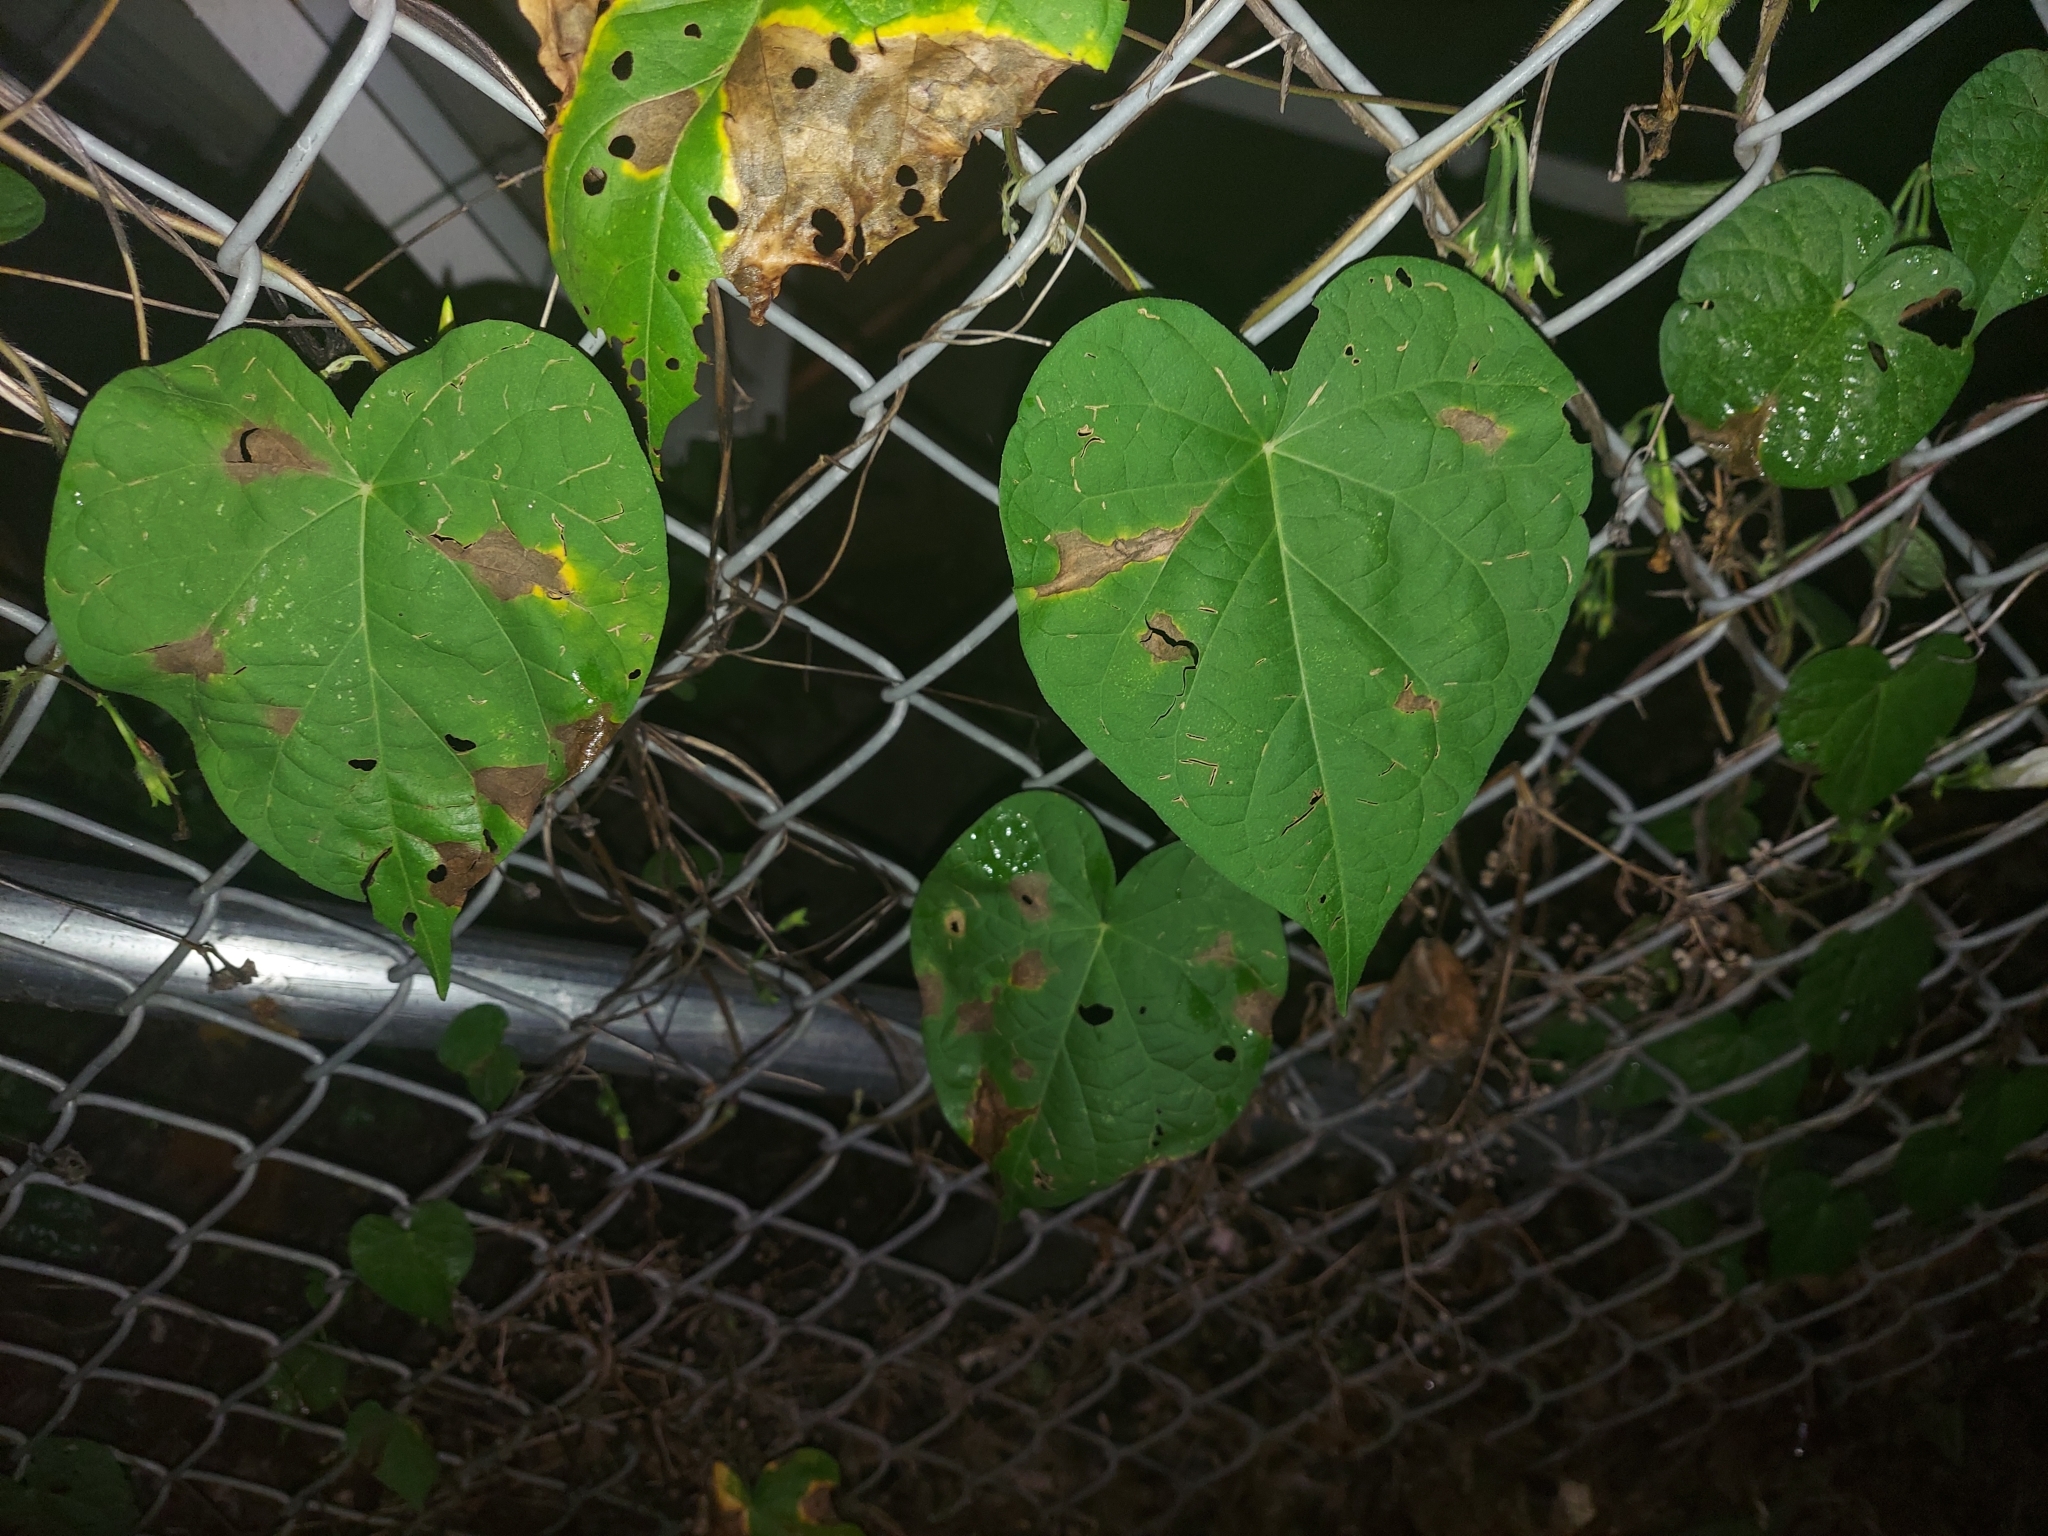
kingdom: Plantae
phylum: Tracheophyta
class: Magnoliopsida
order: Solanales
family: Convolvulaceae
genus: Ipomoea
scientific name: Ipomoea purpurea
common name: Common morning-glory
